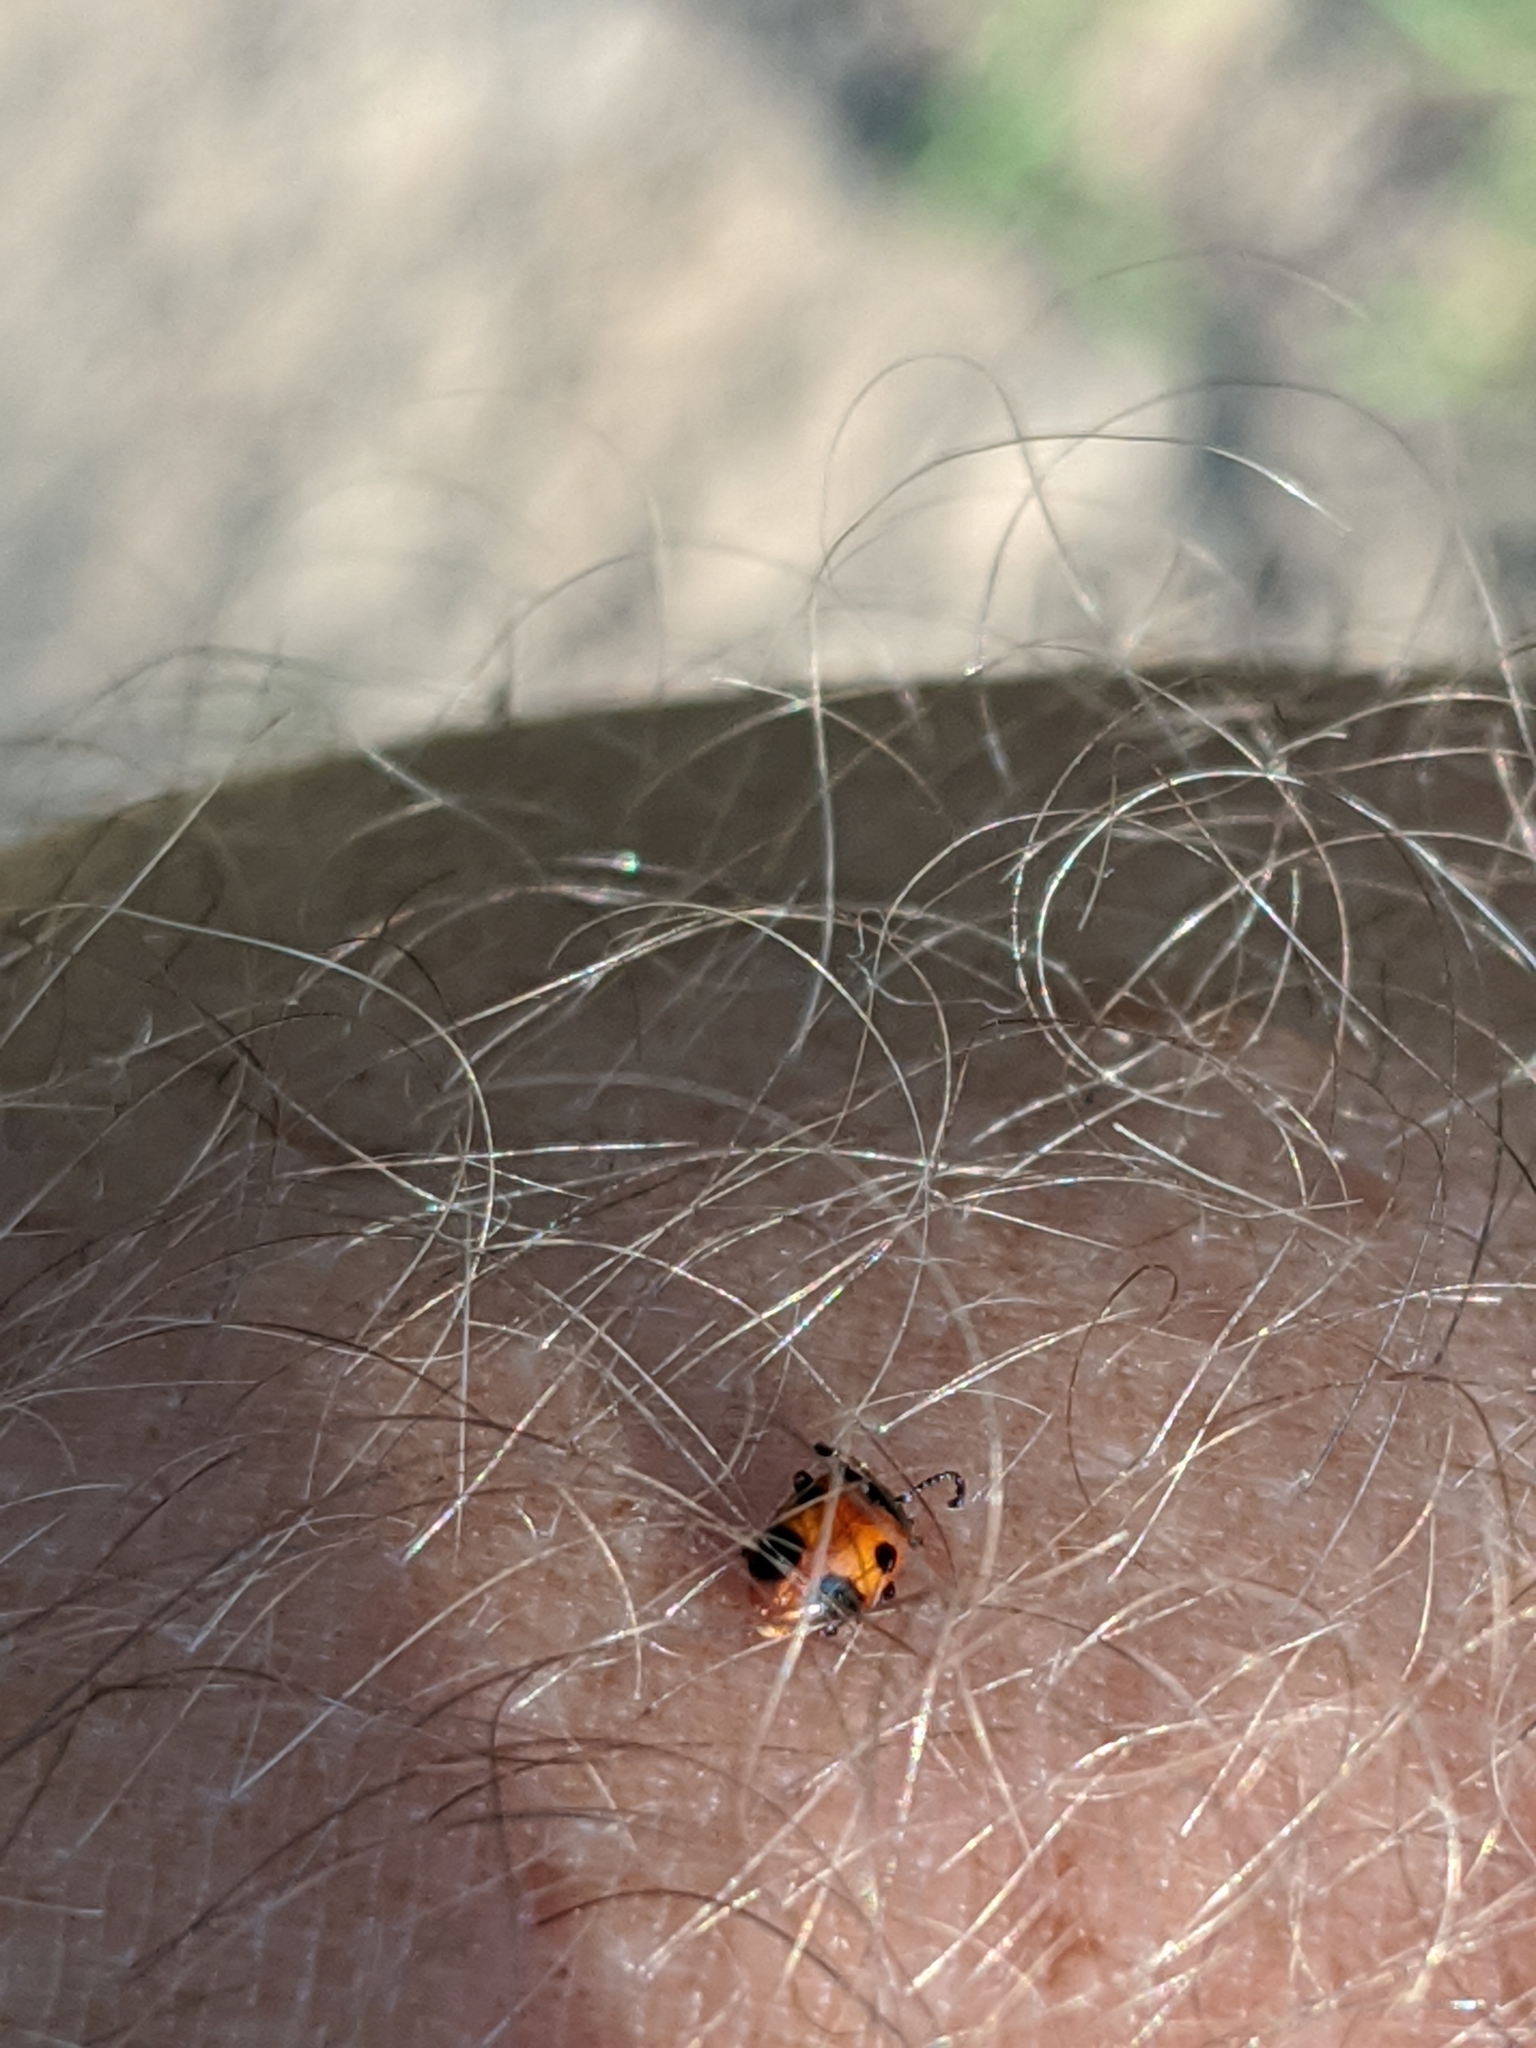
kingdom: Animalia
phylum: Arthropoda
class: Insecta
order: Coleoptera
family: Endomychidae
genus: Endomychus
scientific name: Endomychus biguttatus
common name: Handsome fungus beetle
